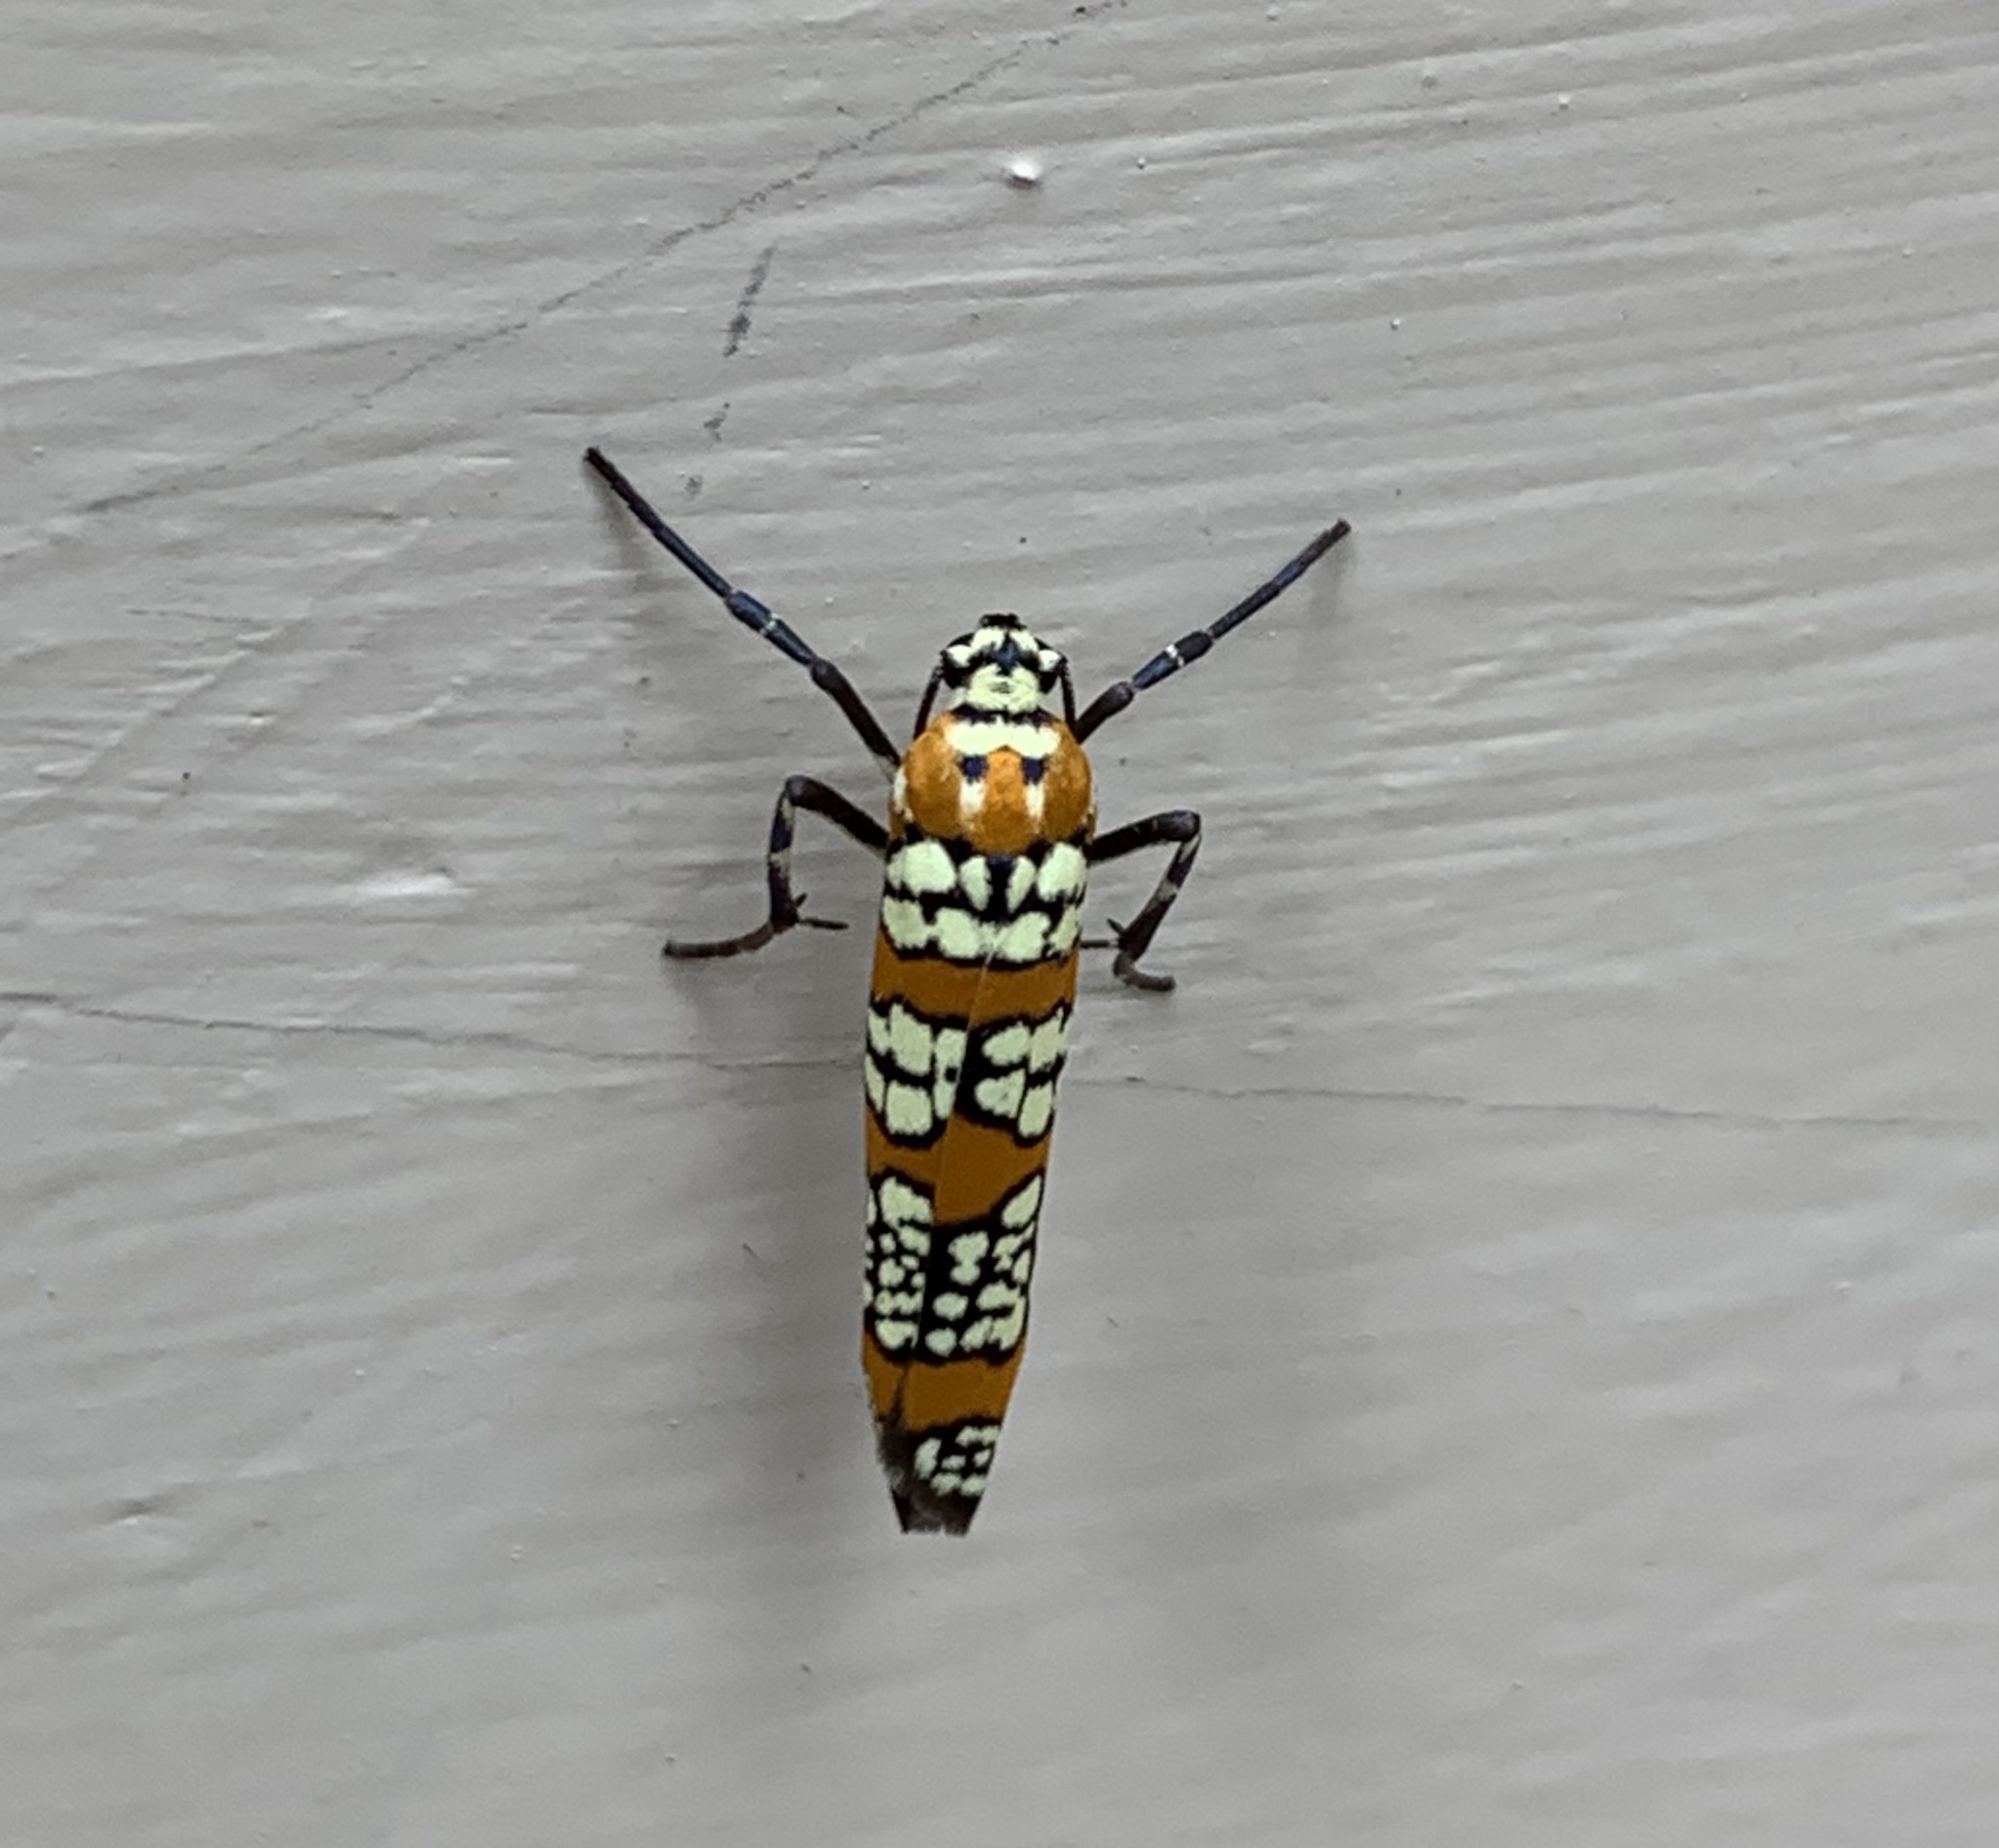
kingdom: Animalia
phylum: Arthropoda
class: Insecta
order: Lepidoptera
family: Attevidae
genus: Atteva
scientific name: Atteva punctella
